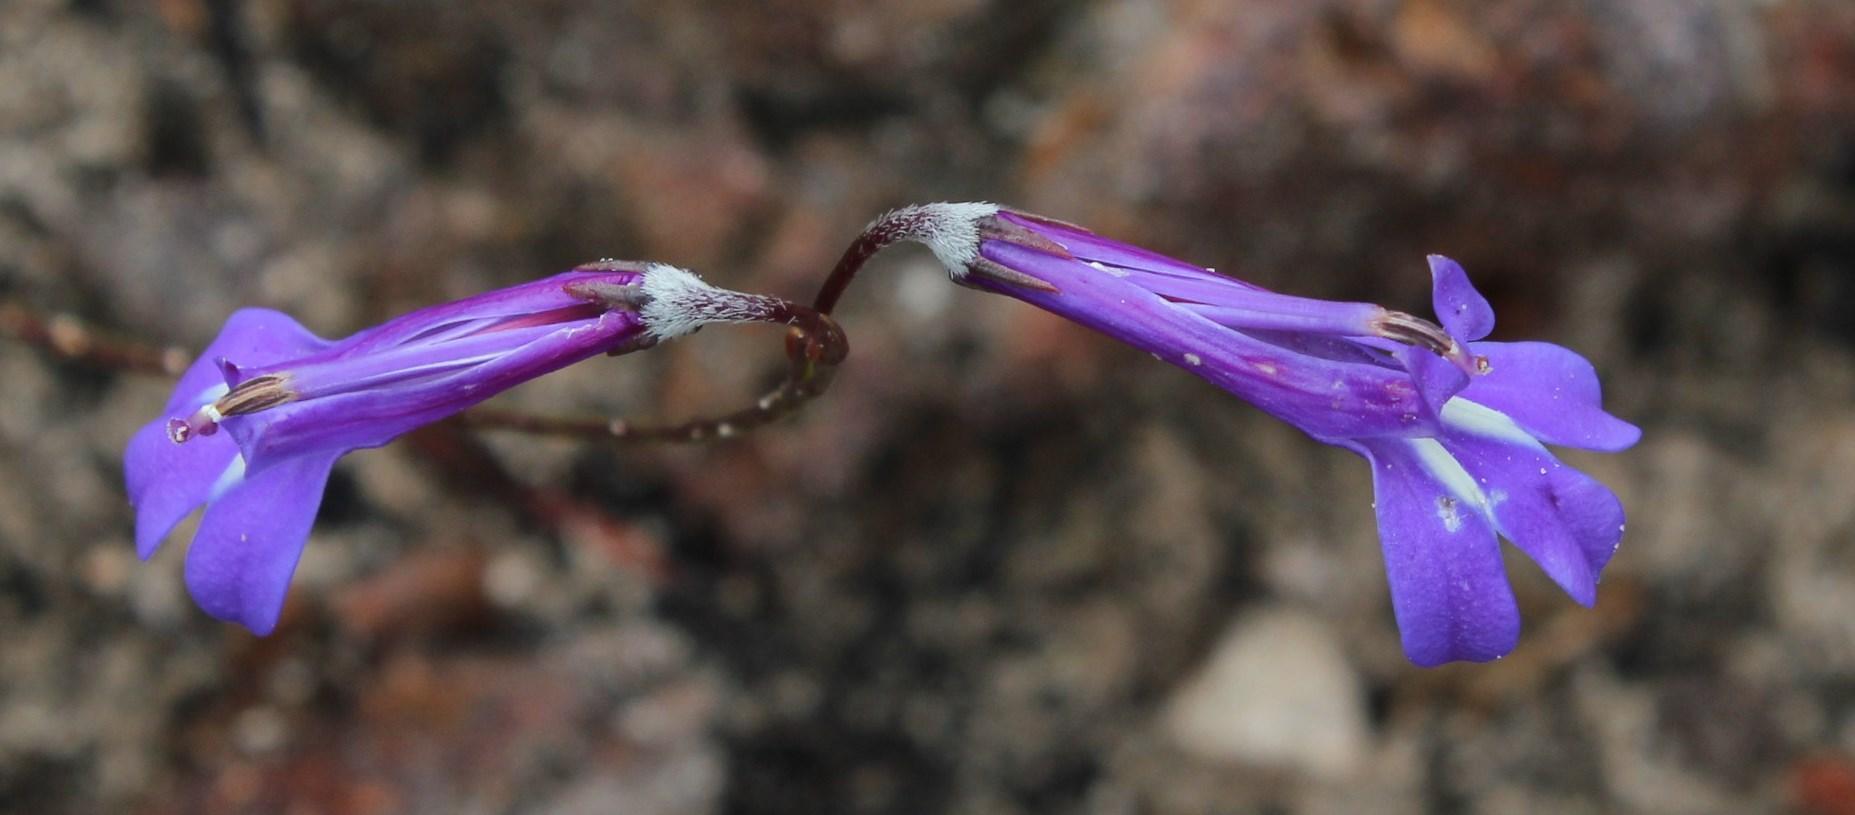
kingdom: Plantae
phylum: Tracheophyta
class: Magnoliopsida
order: Asterales
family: Campanulaceae
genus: Lobelia
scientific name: Lobelia coronopifolia
